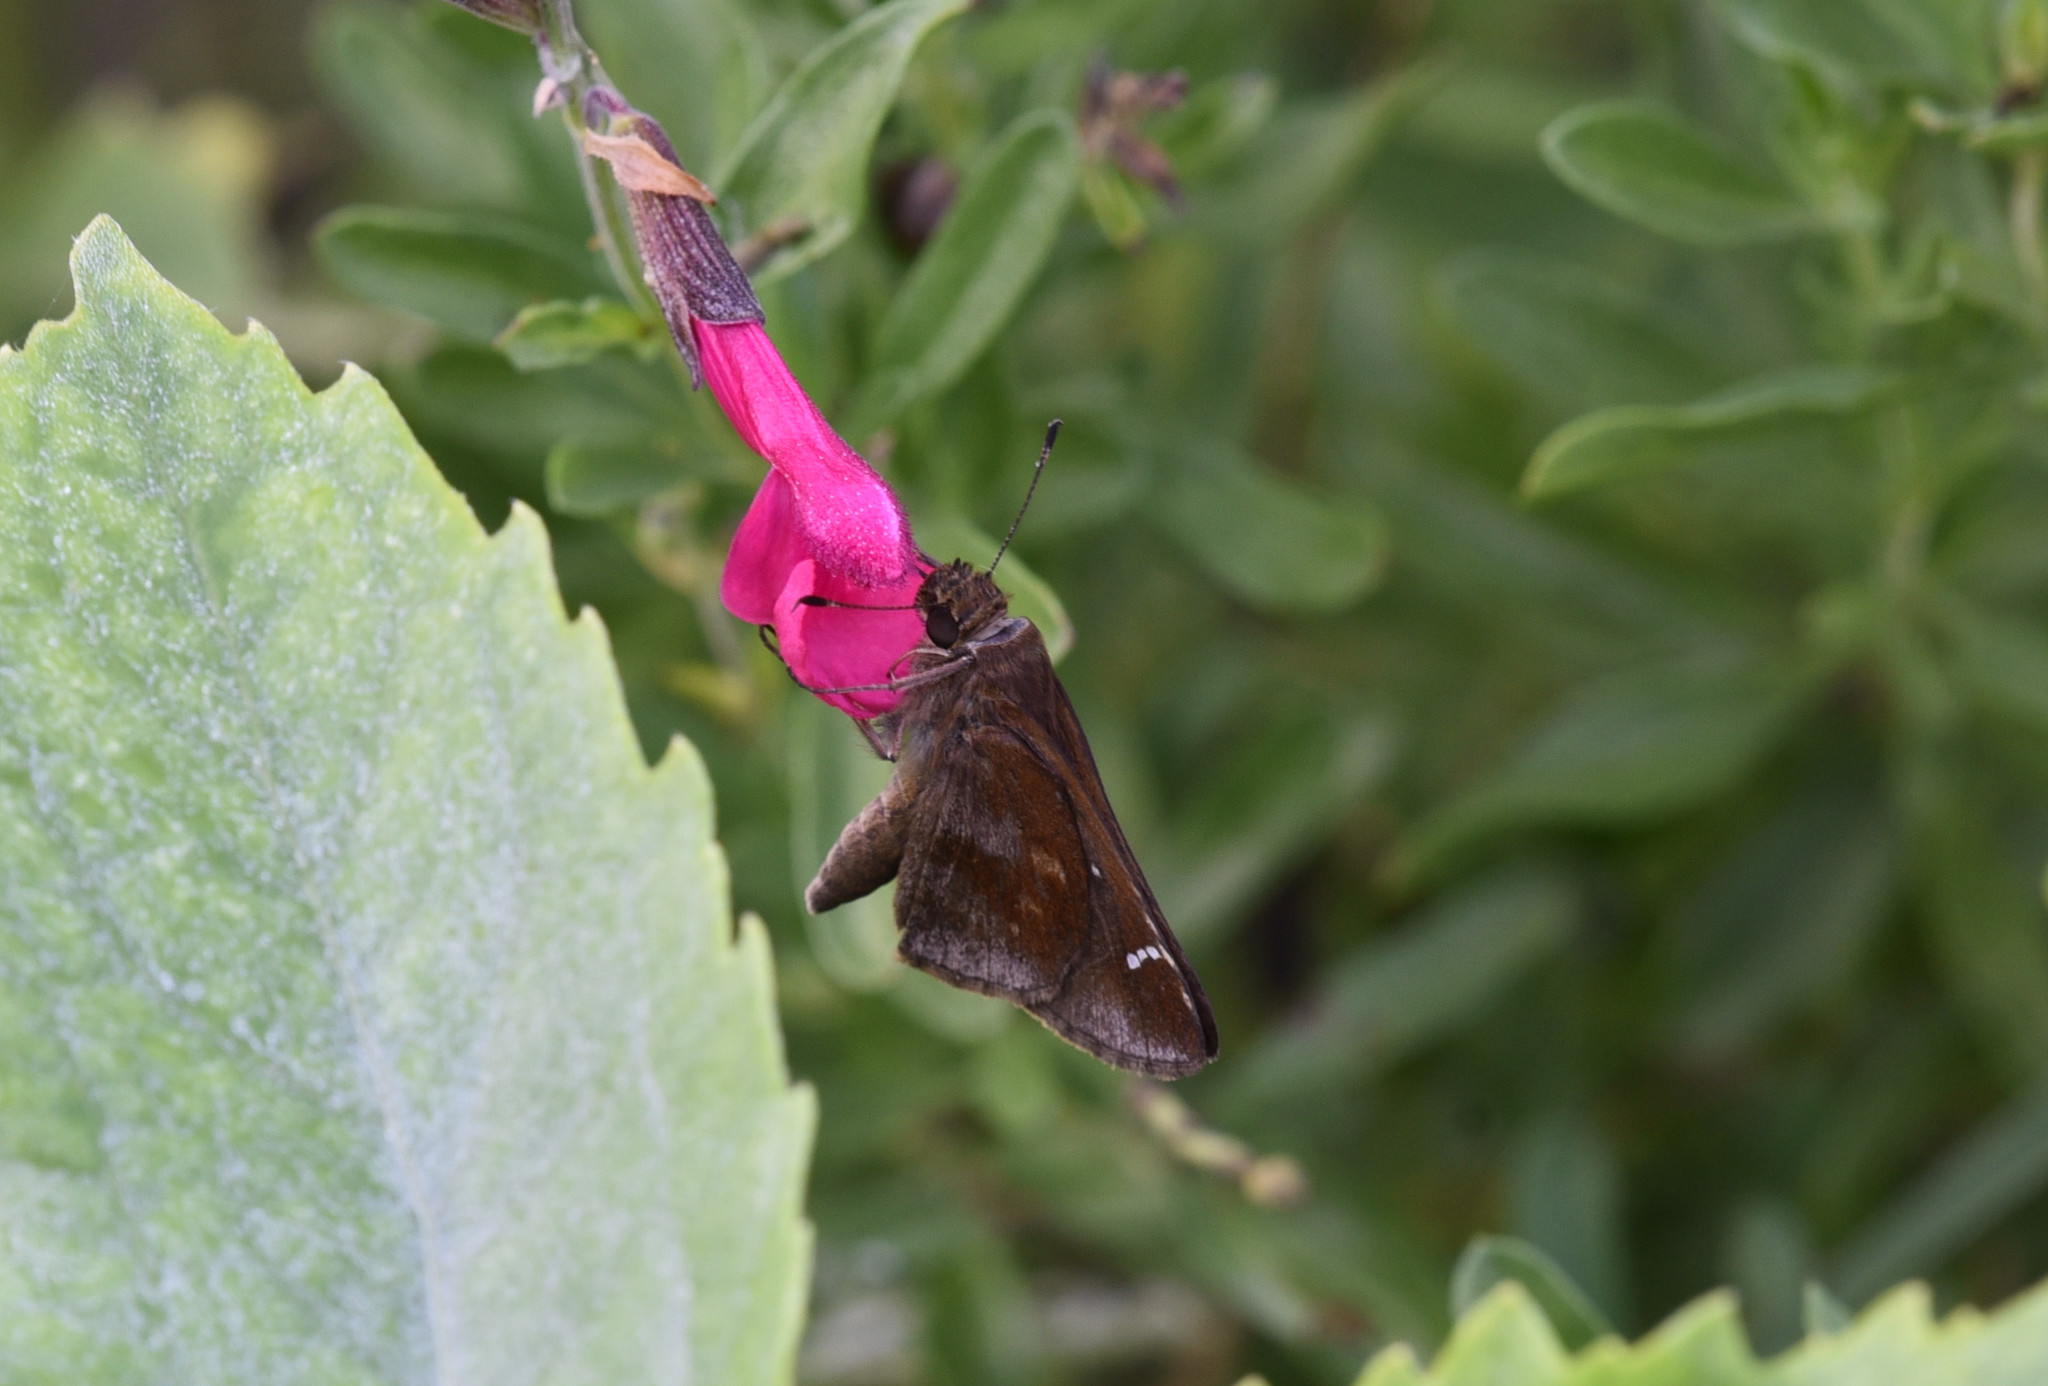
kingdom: Animalia
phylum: Arthropoda
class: Insecta
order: Lepidoptera
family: Hesperiidae
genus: Lerema
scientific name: Lerema accius
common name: Clouded skipper
